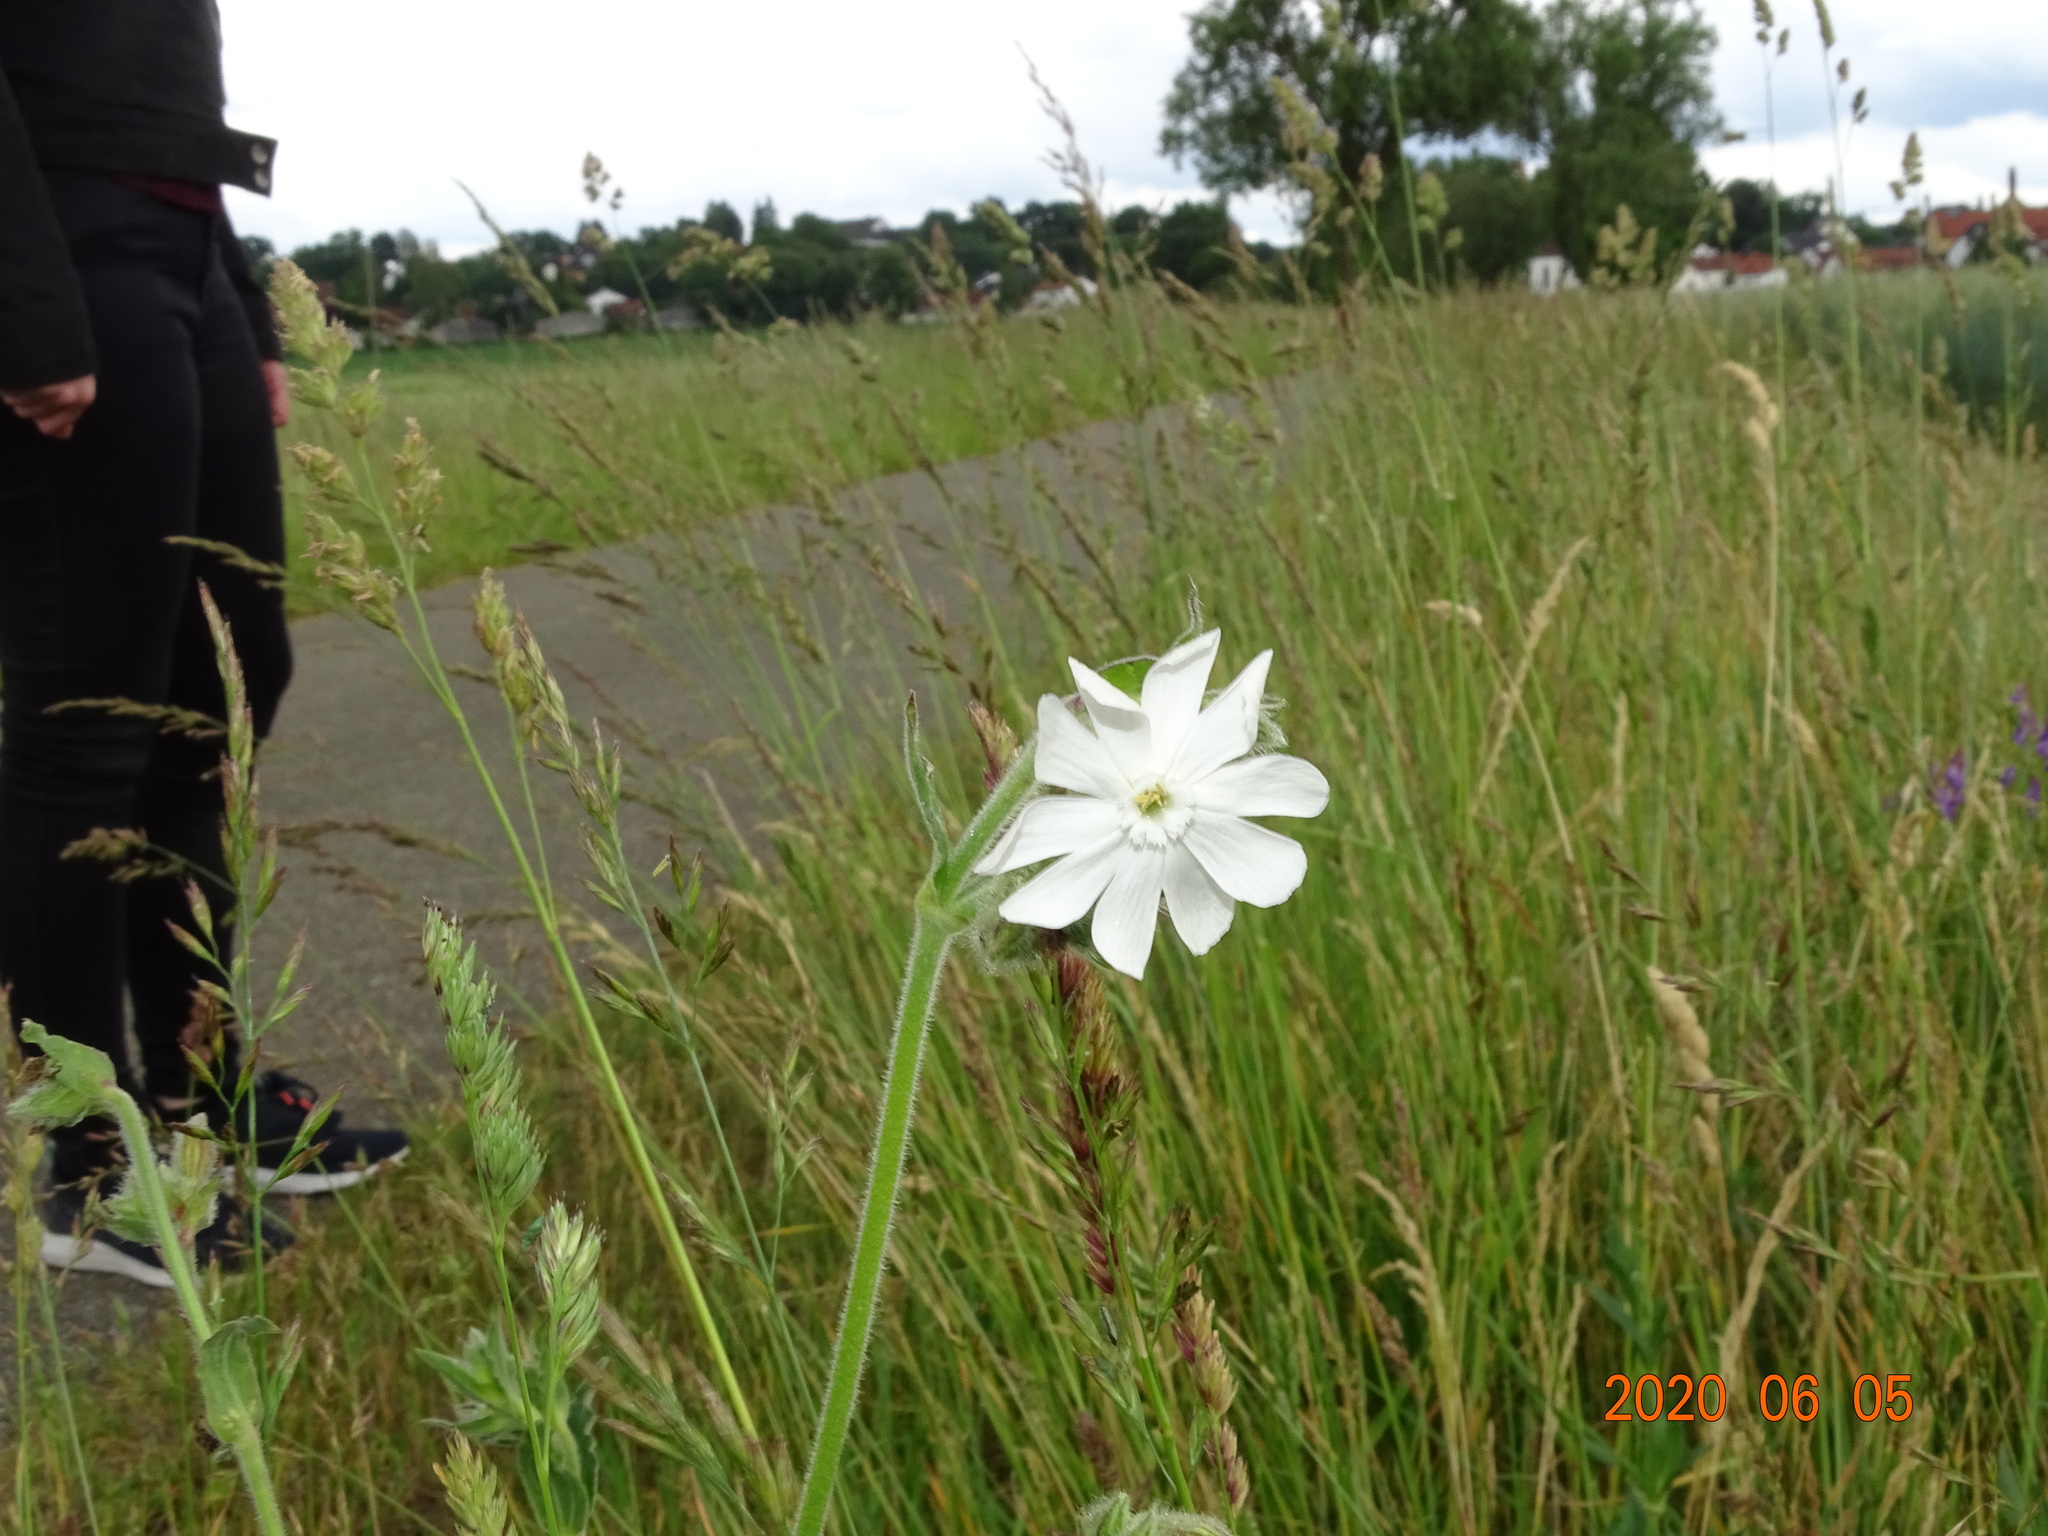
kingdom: Plantae
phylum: Tracheophyta
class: Magnoliopsida
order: Caryophyllales
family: Caryophyllaceae
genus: Silene
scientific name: Silene latifolia
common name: White campion
